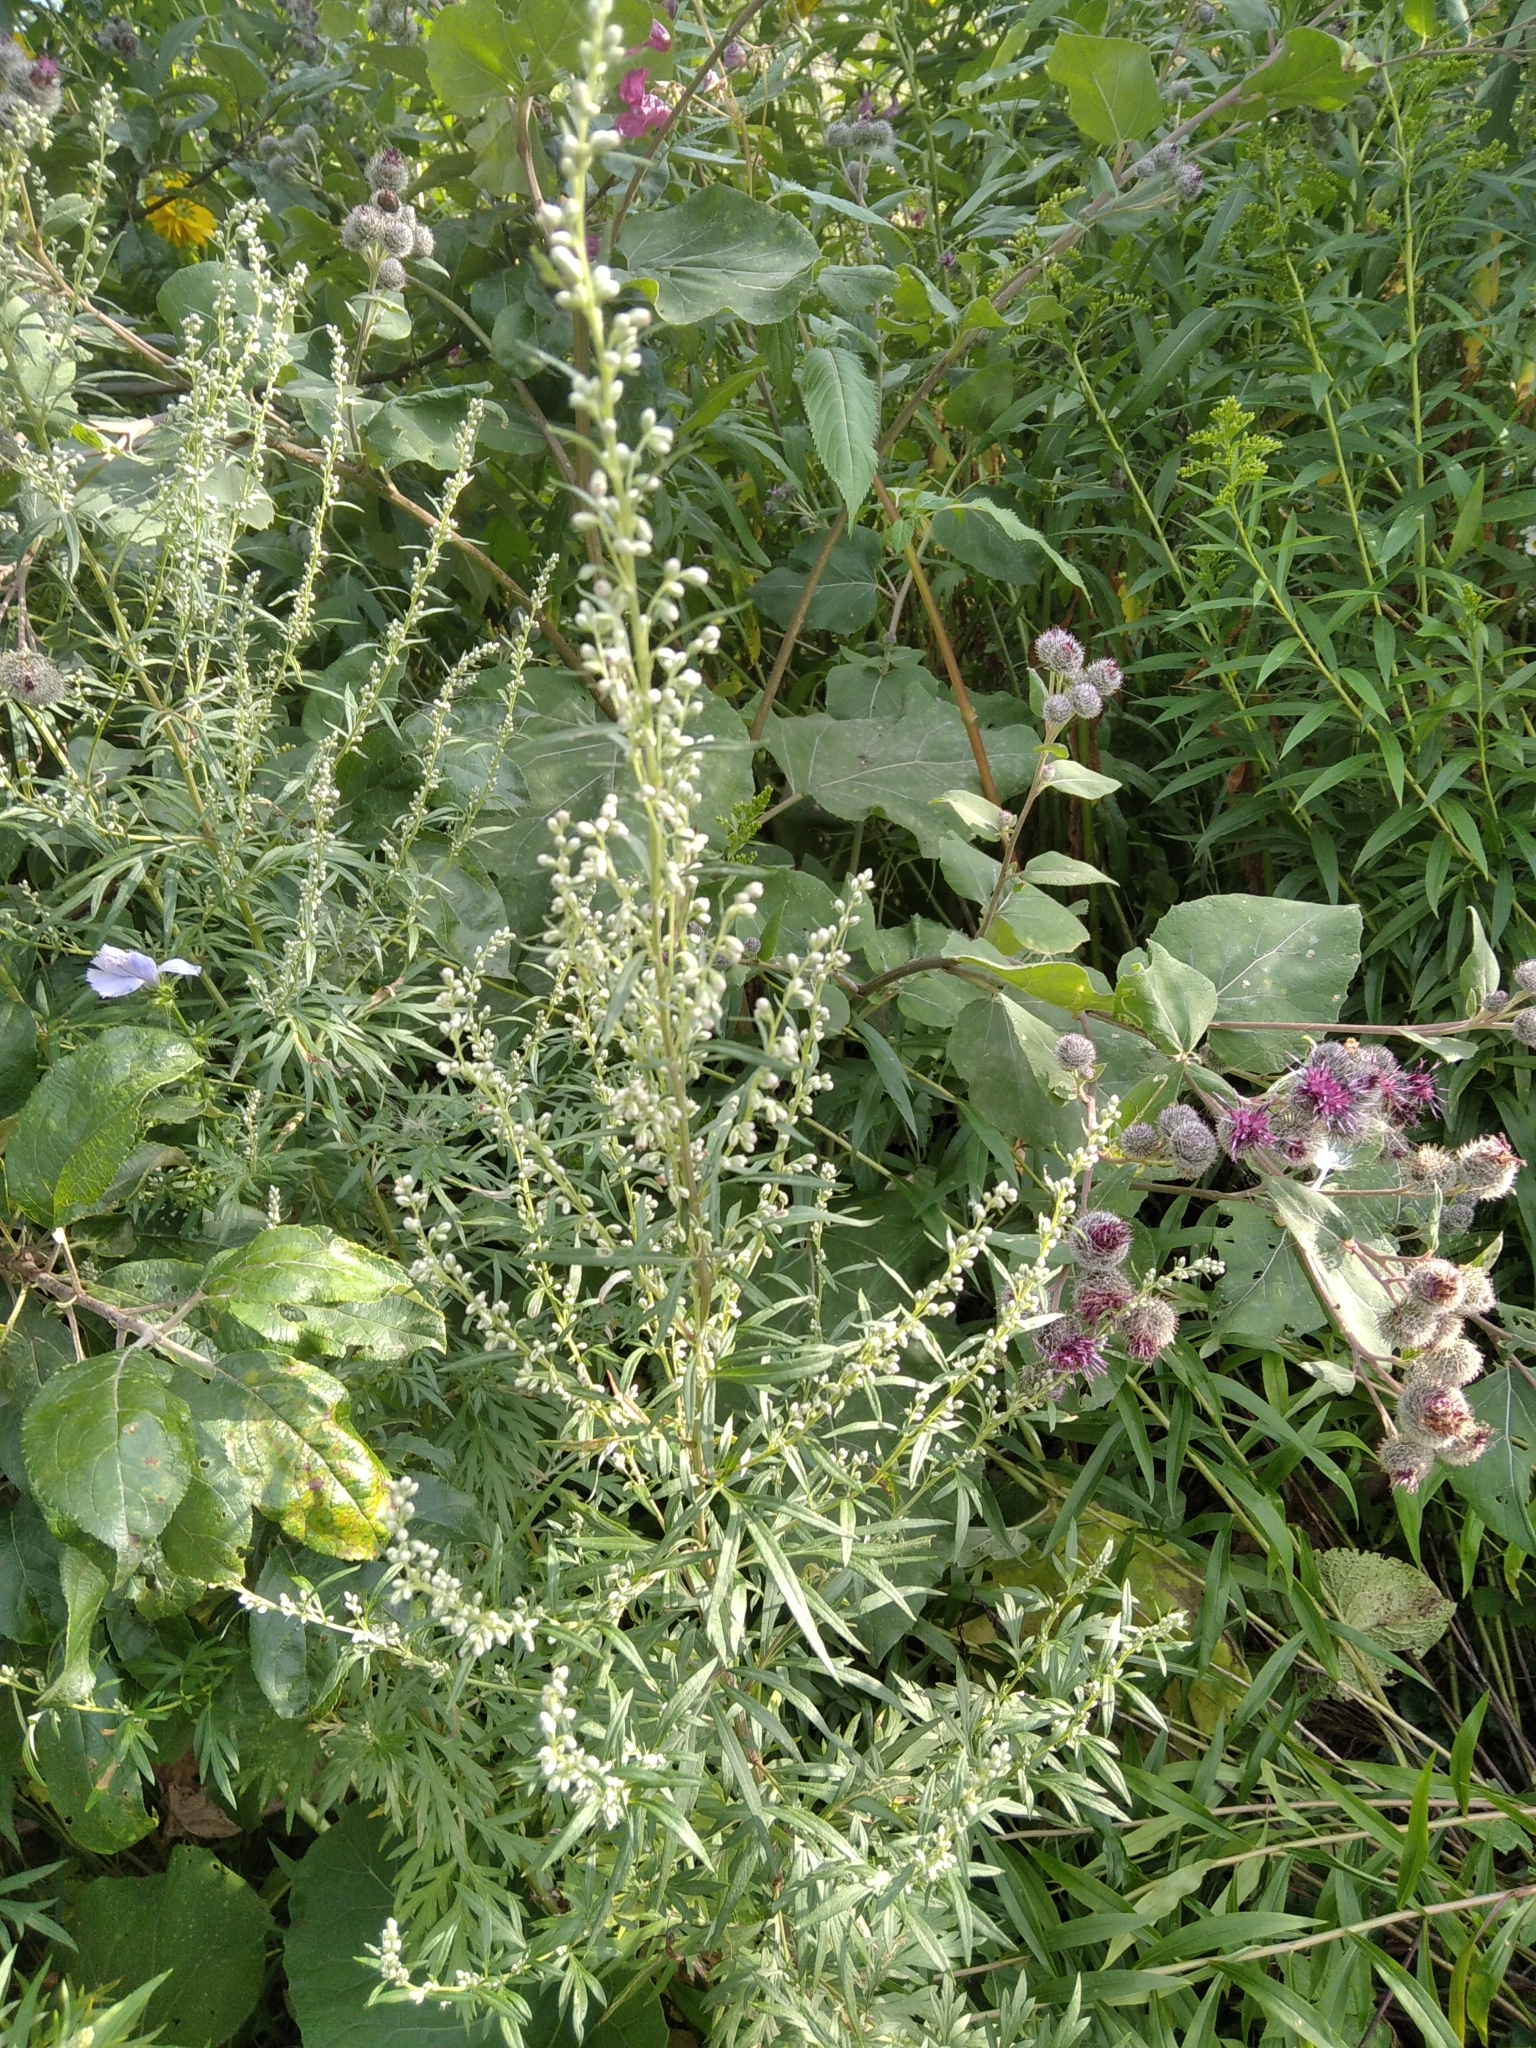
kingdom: Plantae
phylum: Tracheophyta
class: Magnoliopsida
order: Asterales
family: Asteraceae
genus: Artemisia
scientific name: Artemisia vulgaris
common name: Mugwort
